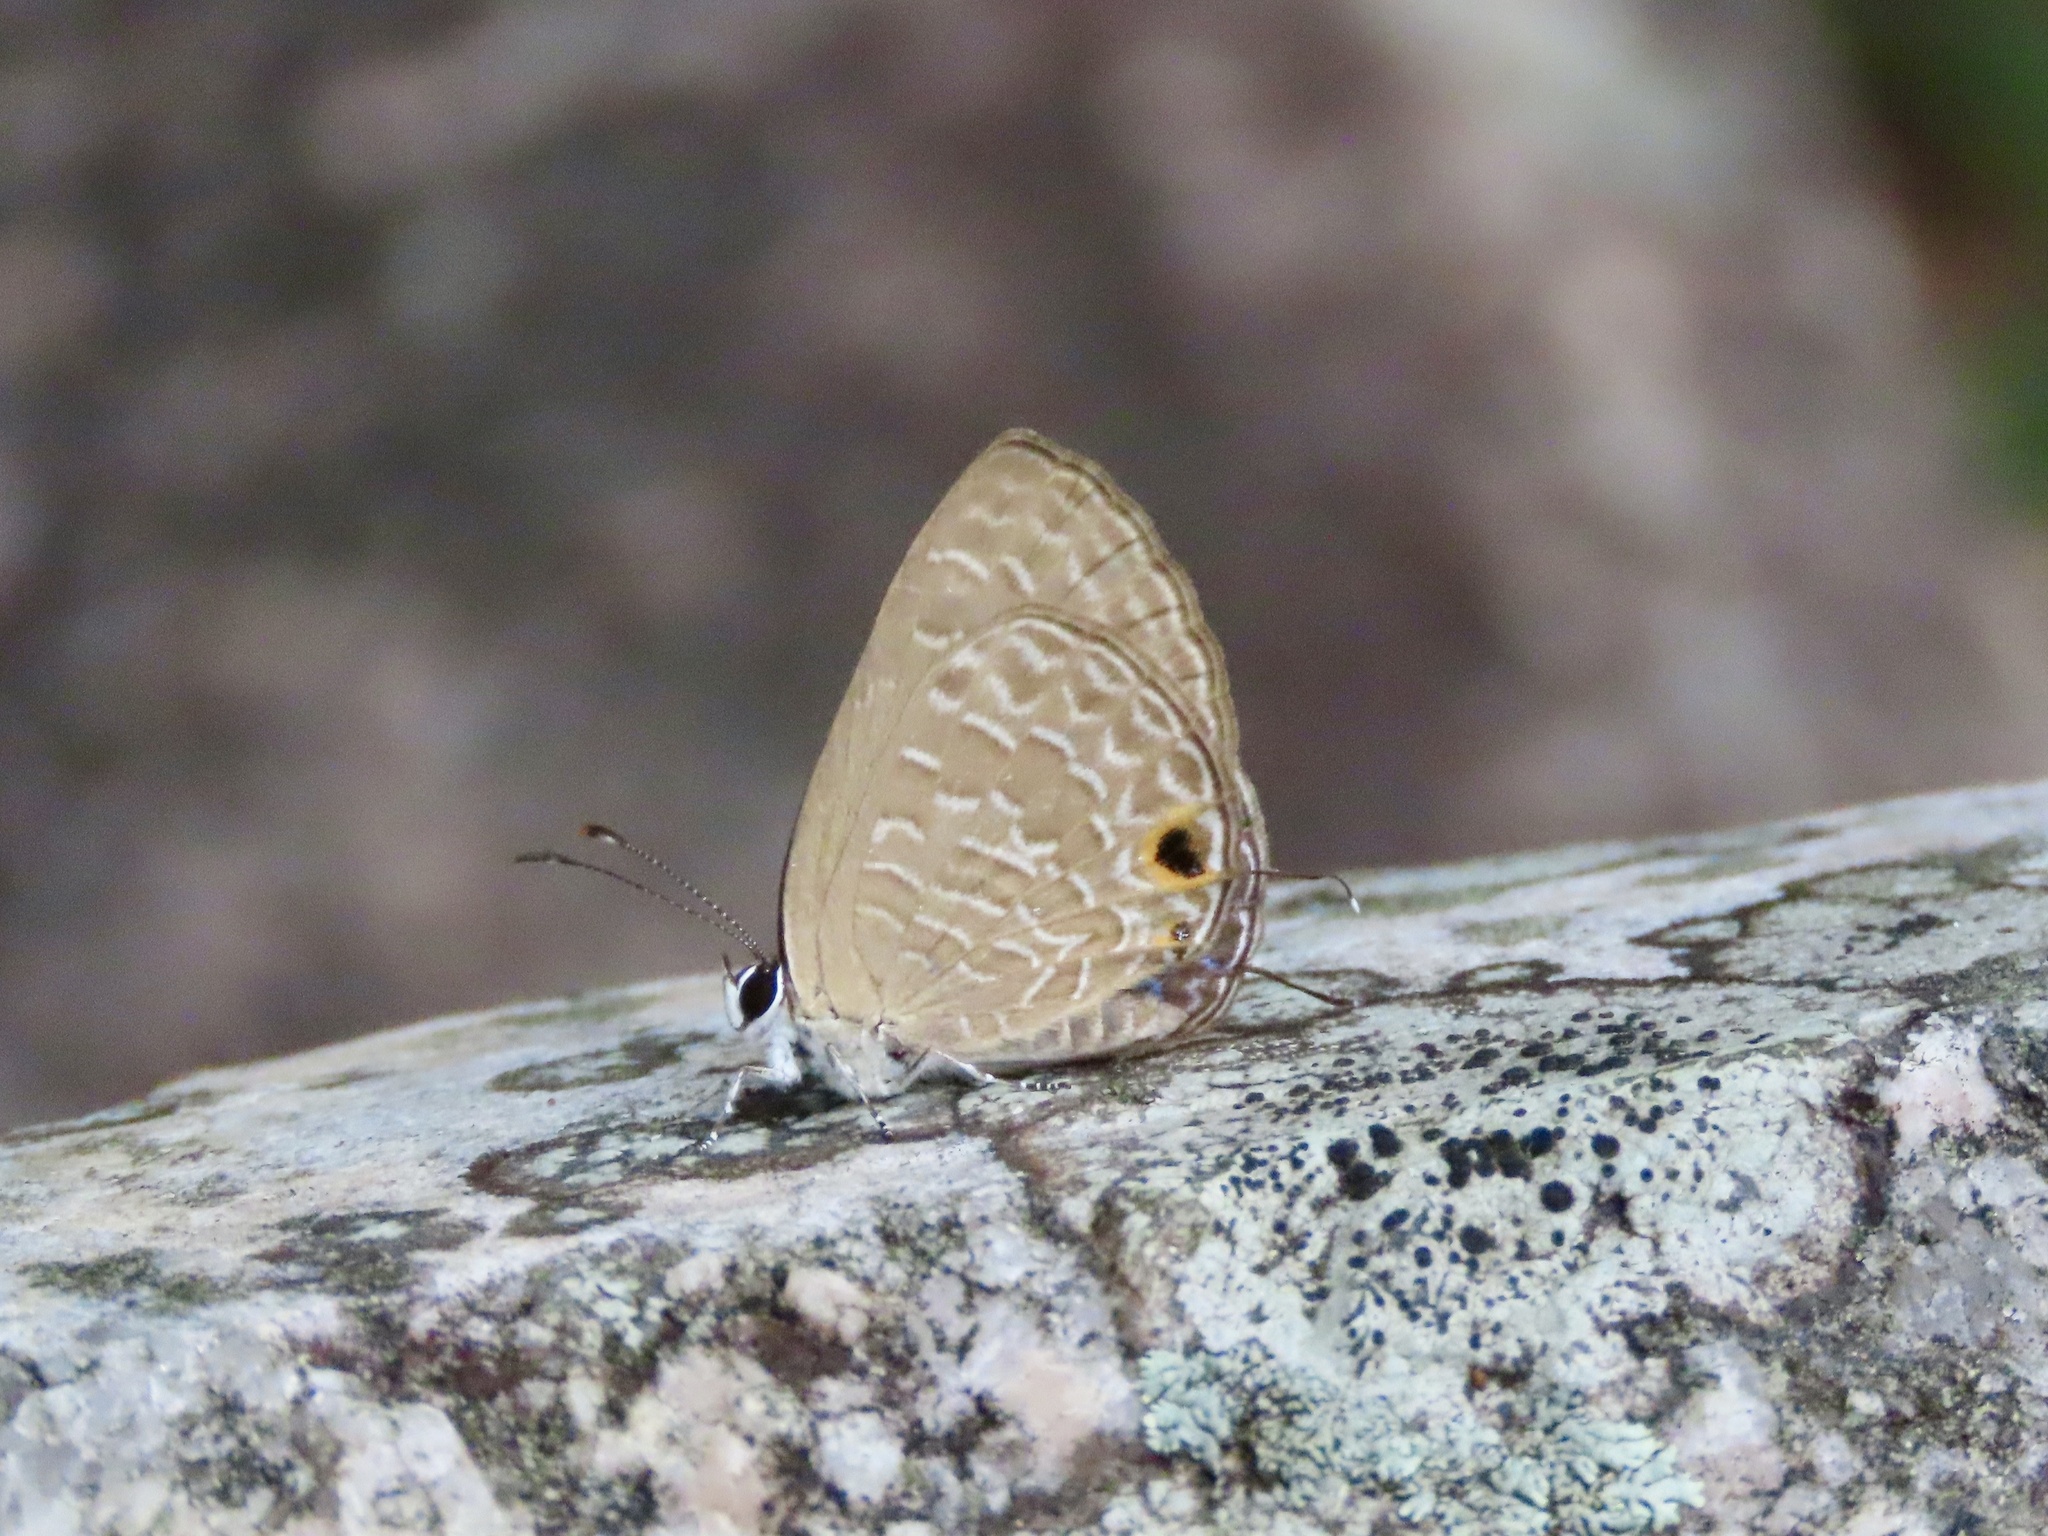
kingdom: Animalia
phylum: Arthropoda
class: Insecta
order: Lepidoptera
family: Lycaenidae
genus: Jamides
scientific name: Jamides bochus
